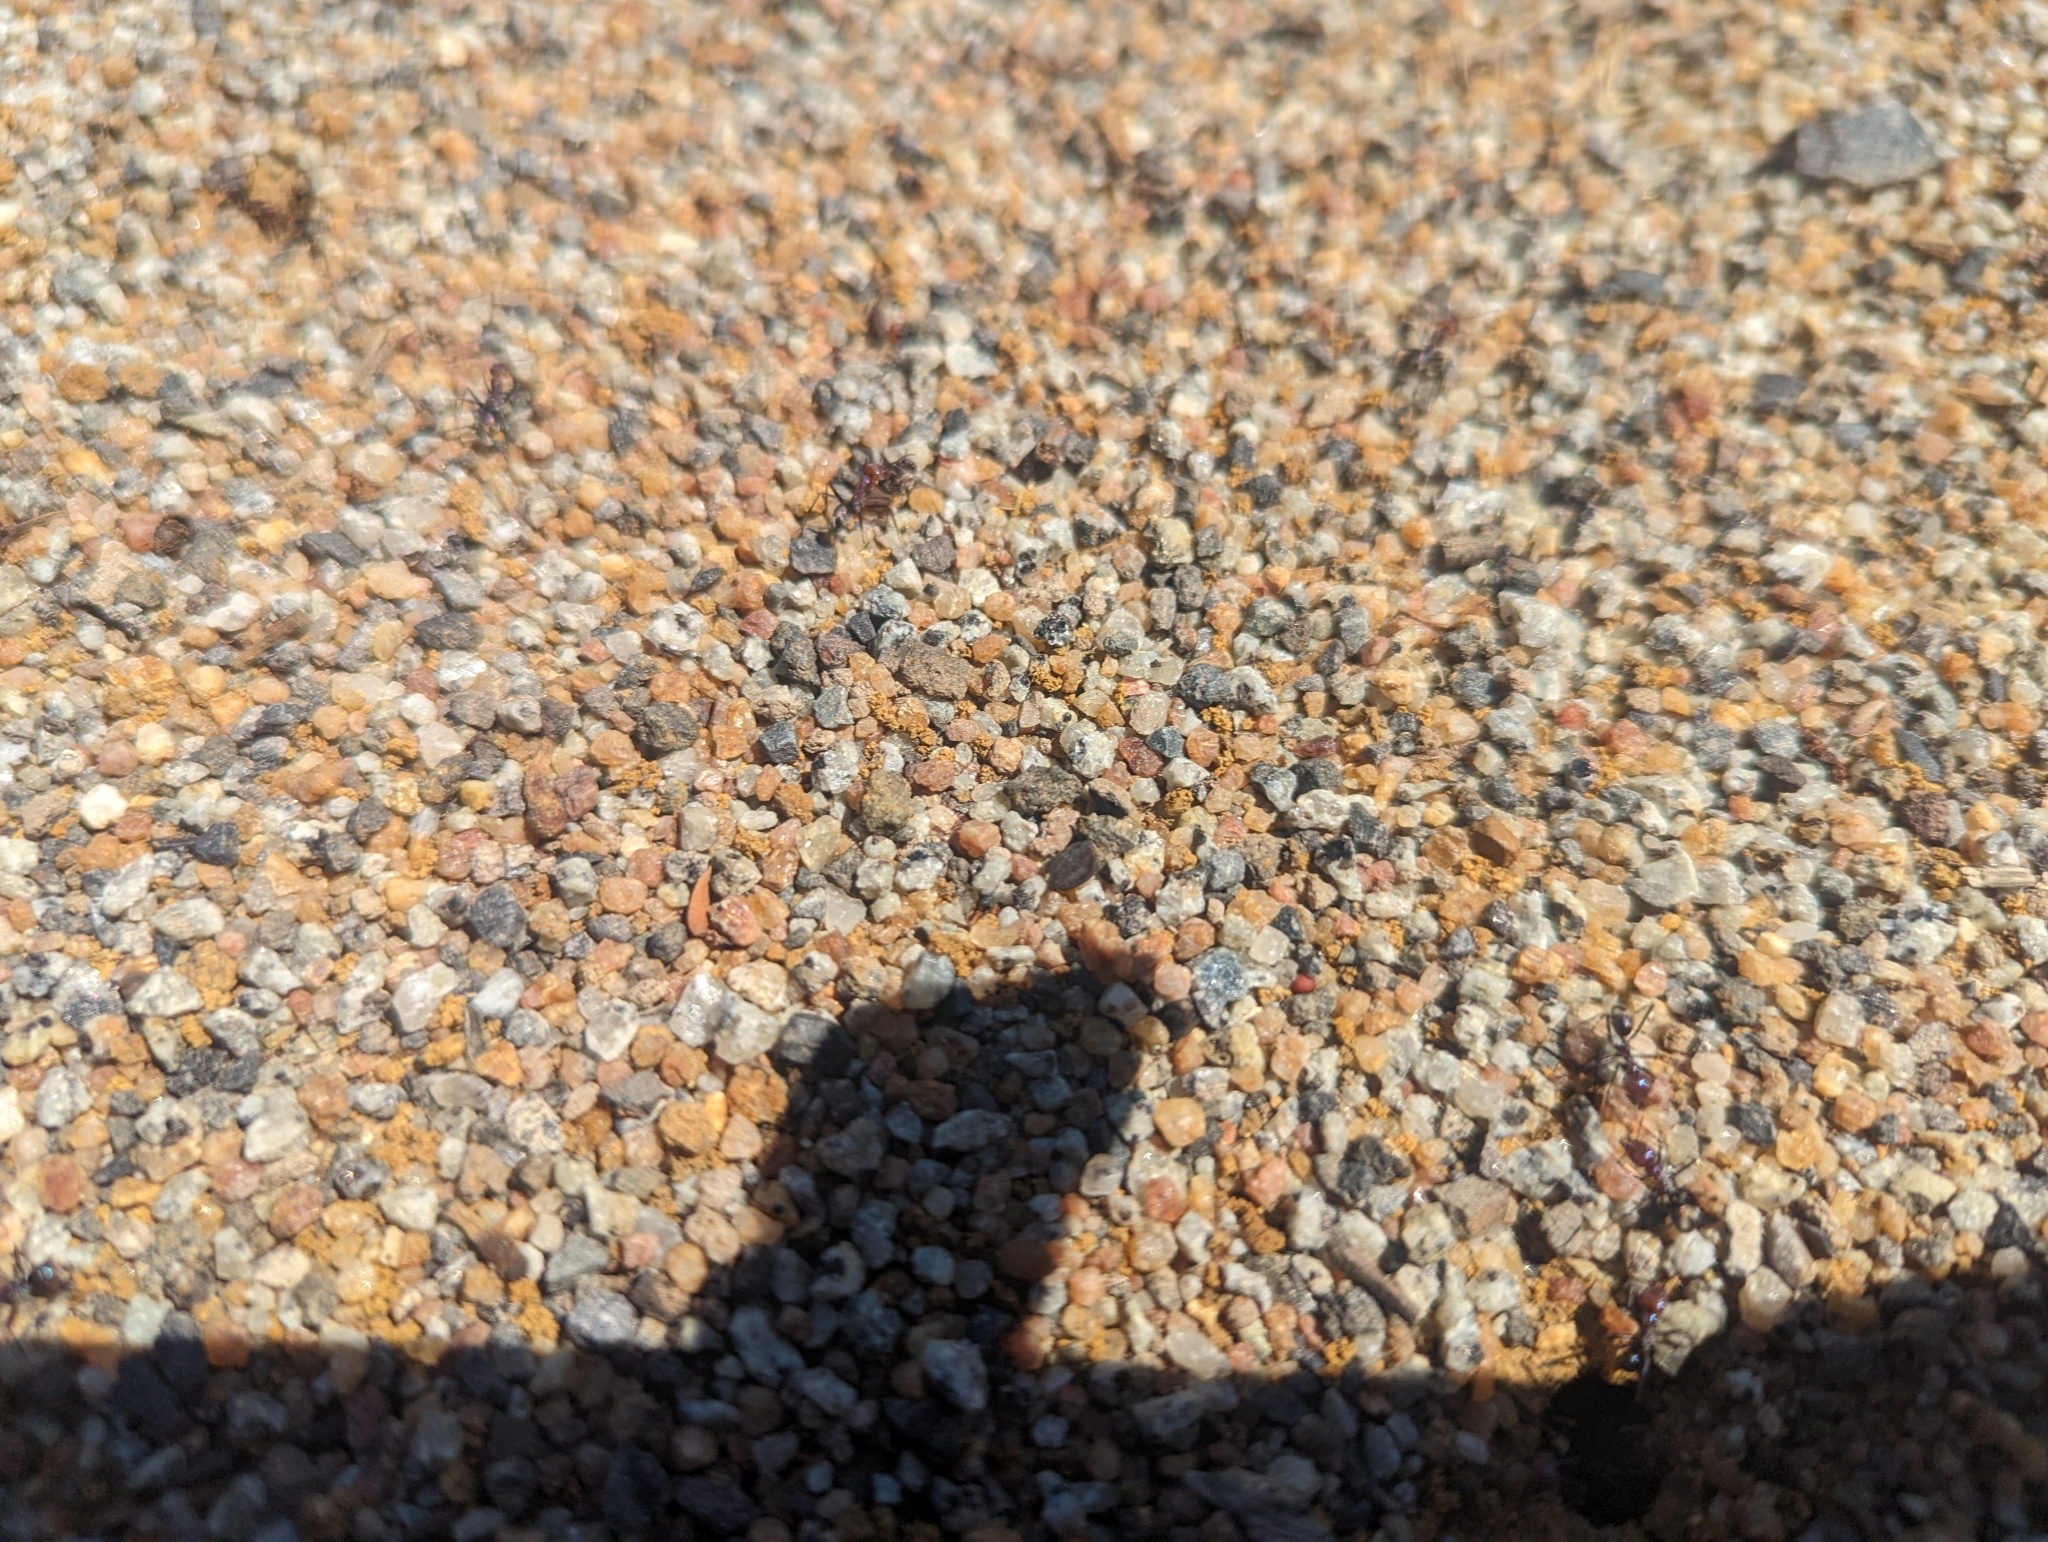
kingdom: Animalia
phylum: Arthropoda
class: Insecta
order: Hymenoptera
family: Formicidae
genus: Iridomyrmex
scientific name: Iridomyrmex purpureus
